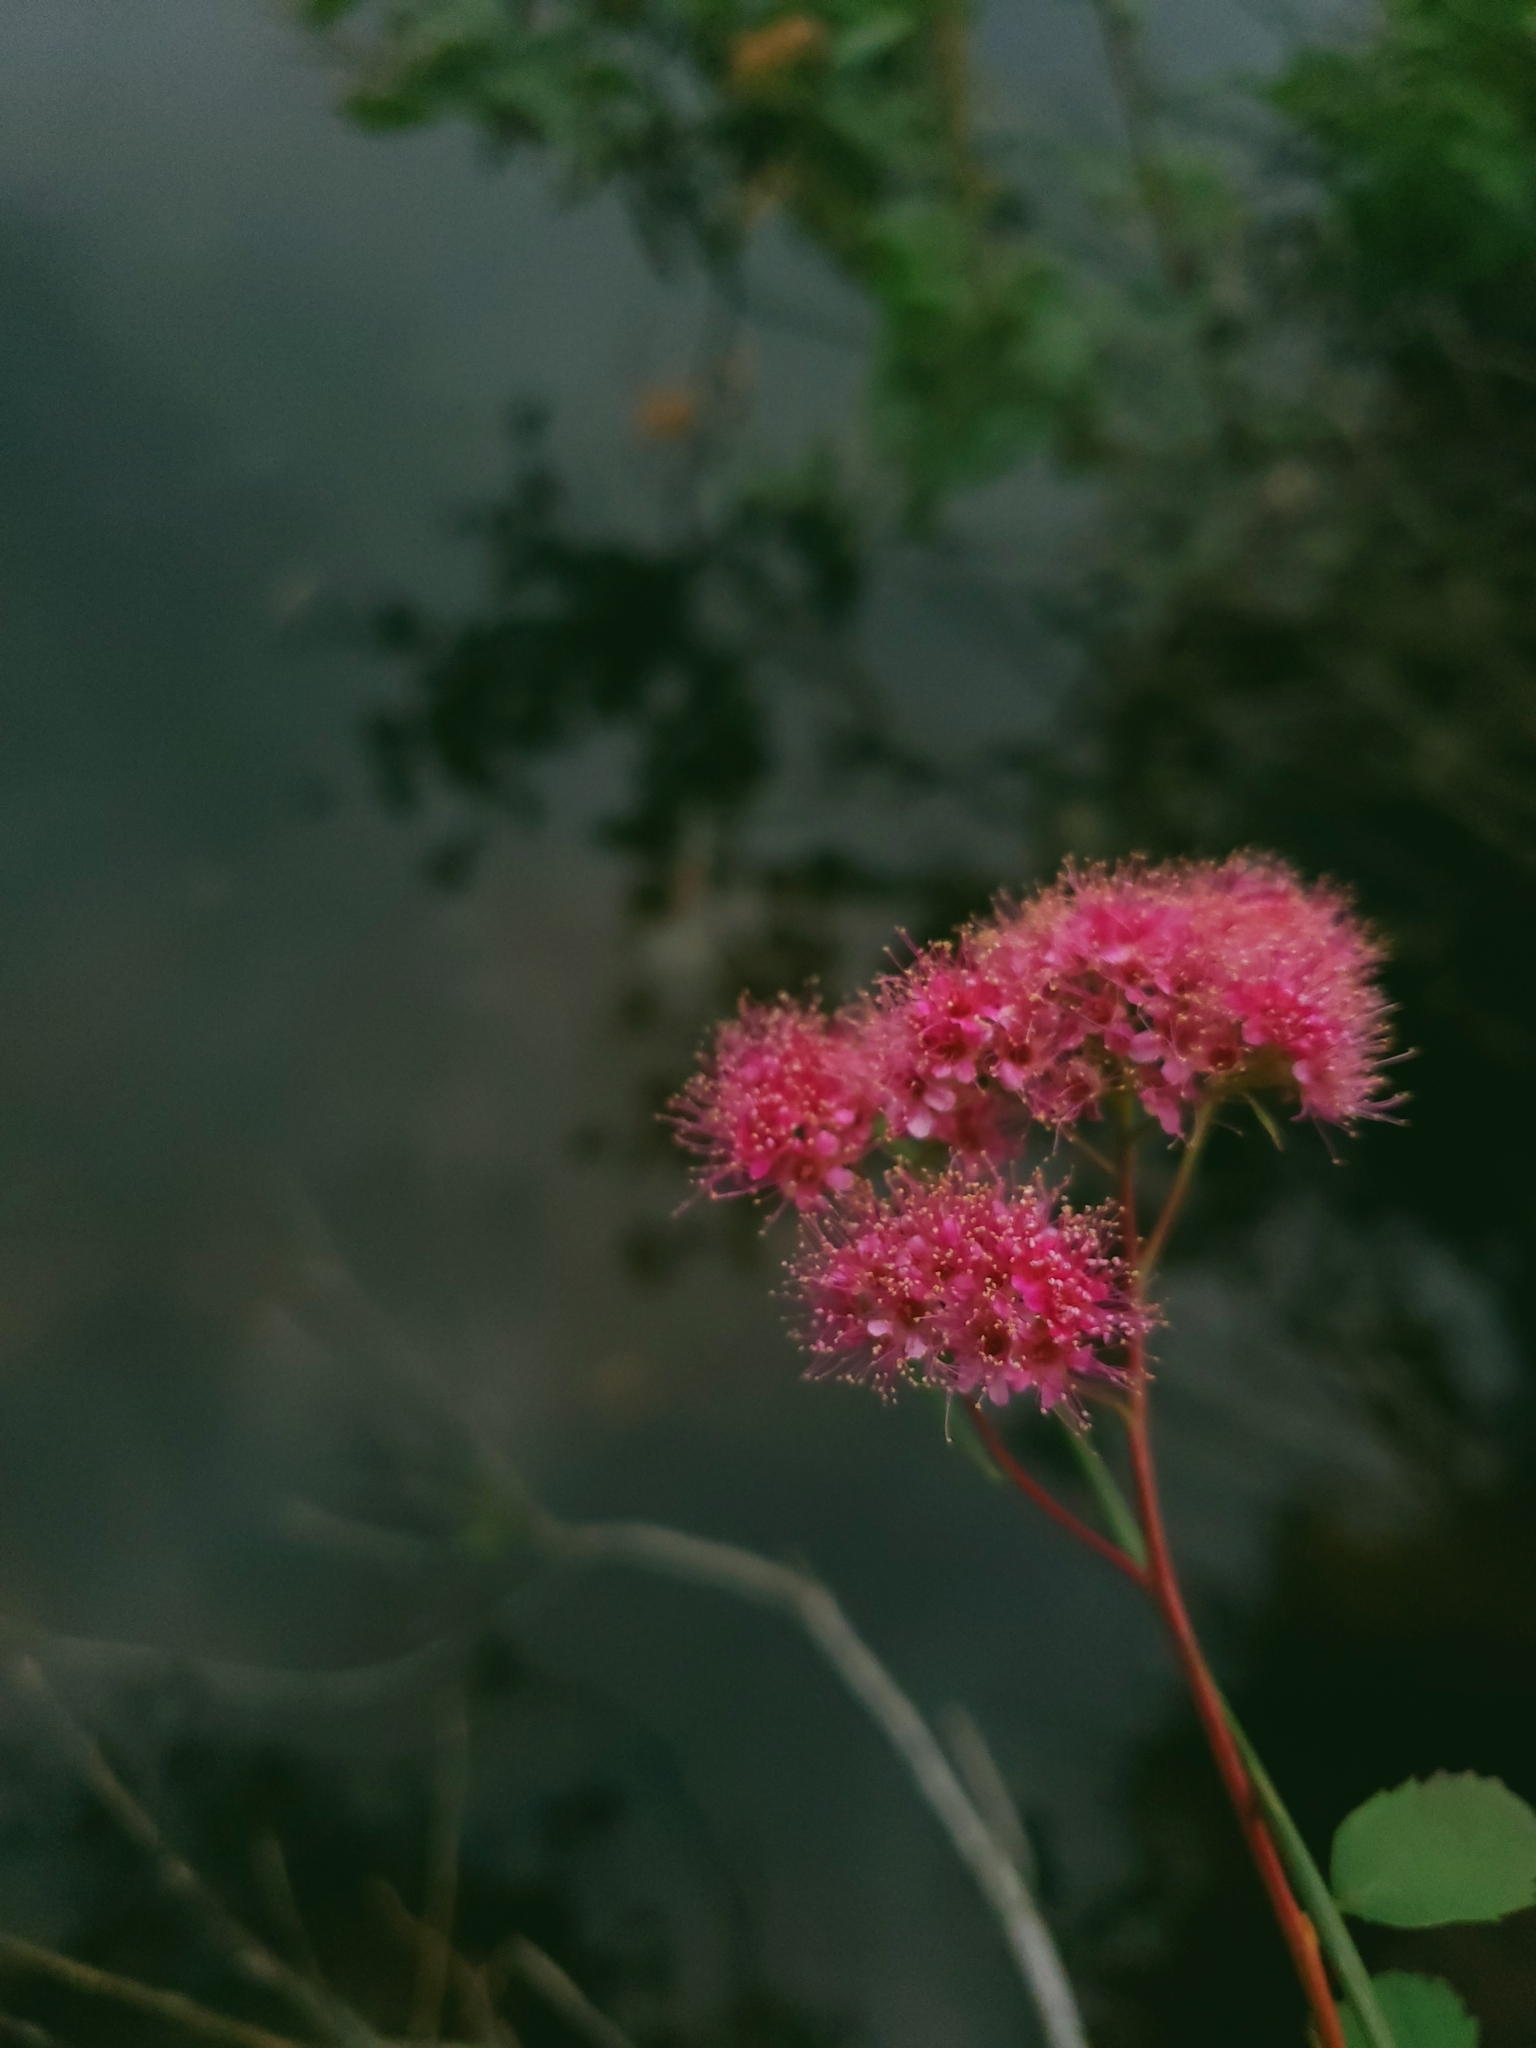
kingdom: Plantae
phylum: Tracheophyta
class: Magnoliopsida
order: Rosales
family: Rosaceae
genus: Spiraea
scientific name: Spiraea splendens
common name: Subalpine meadowsweet
